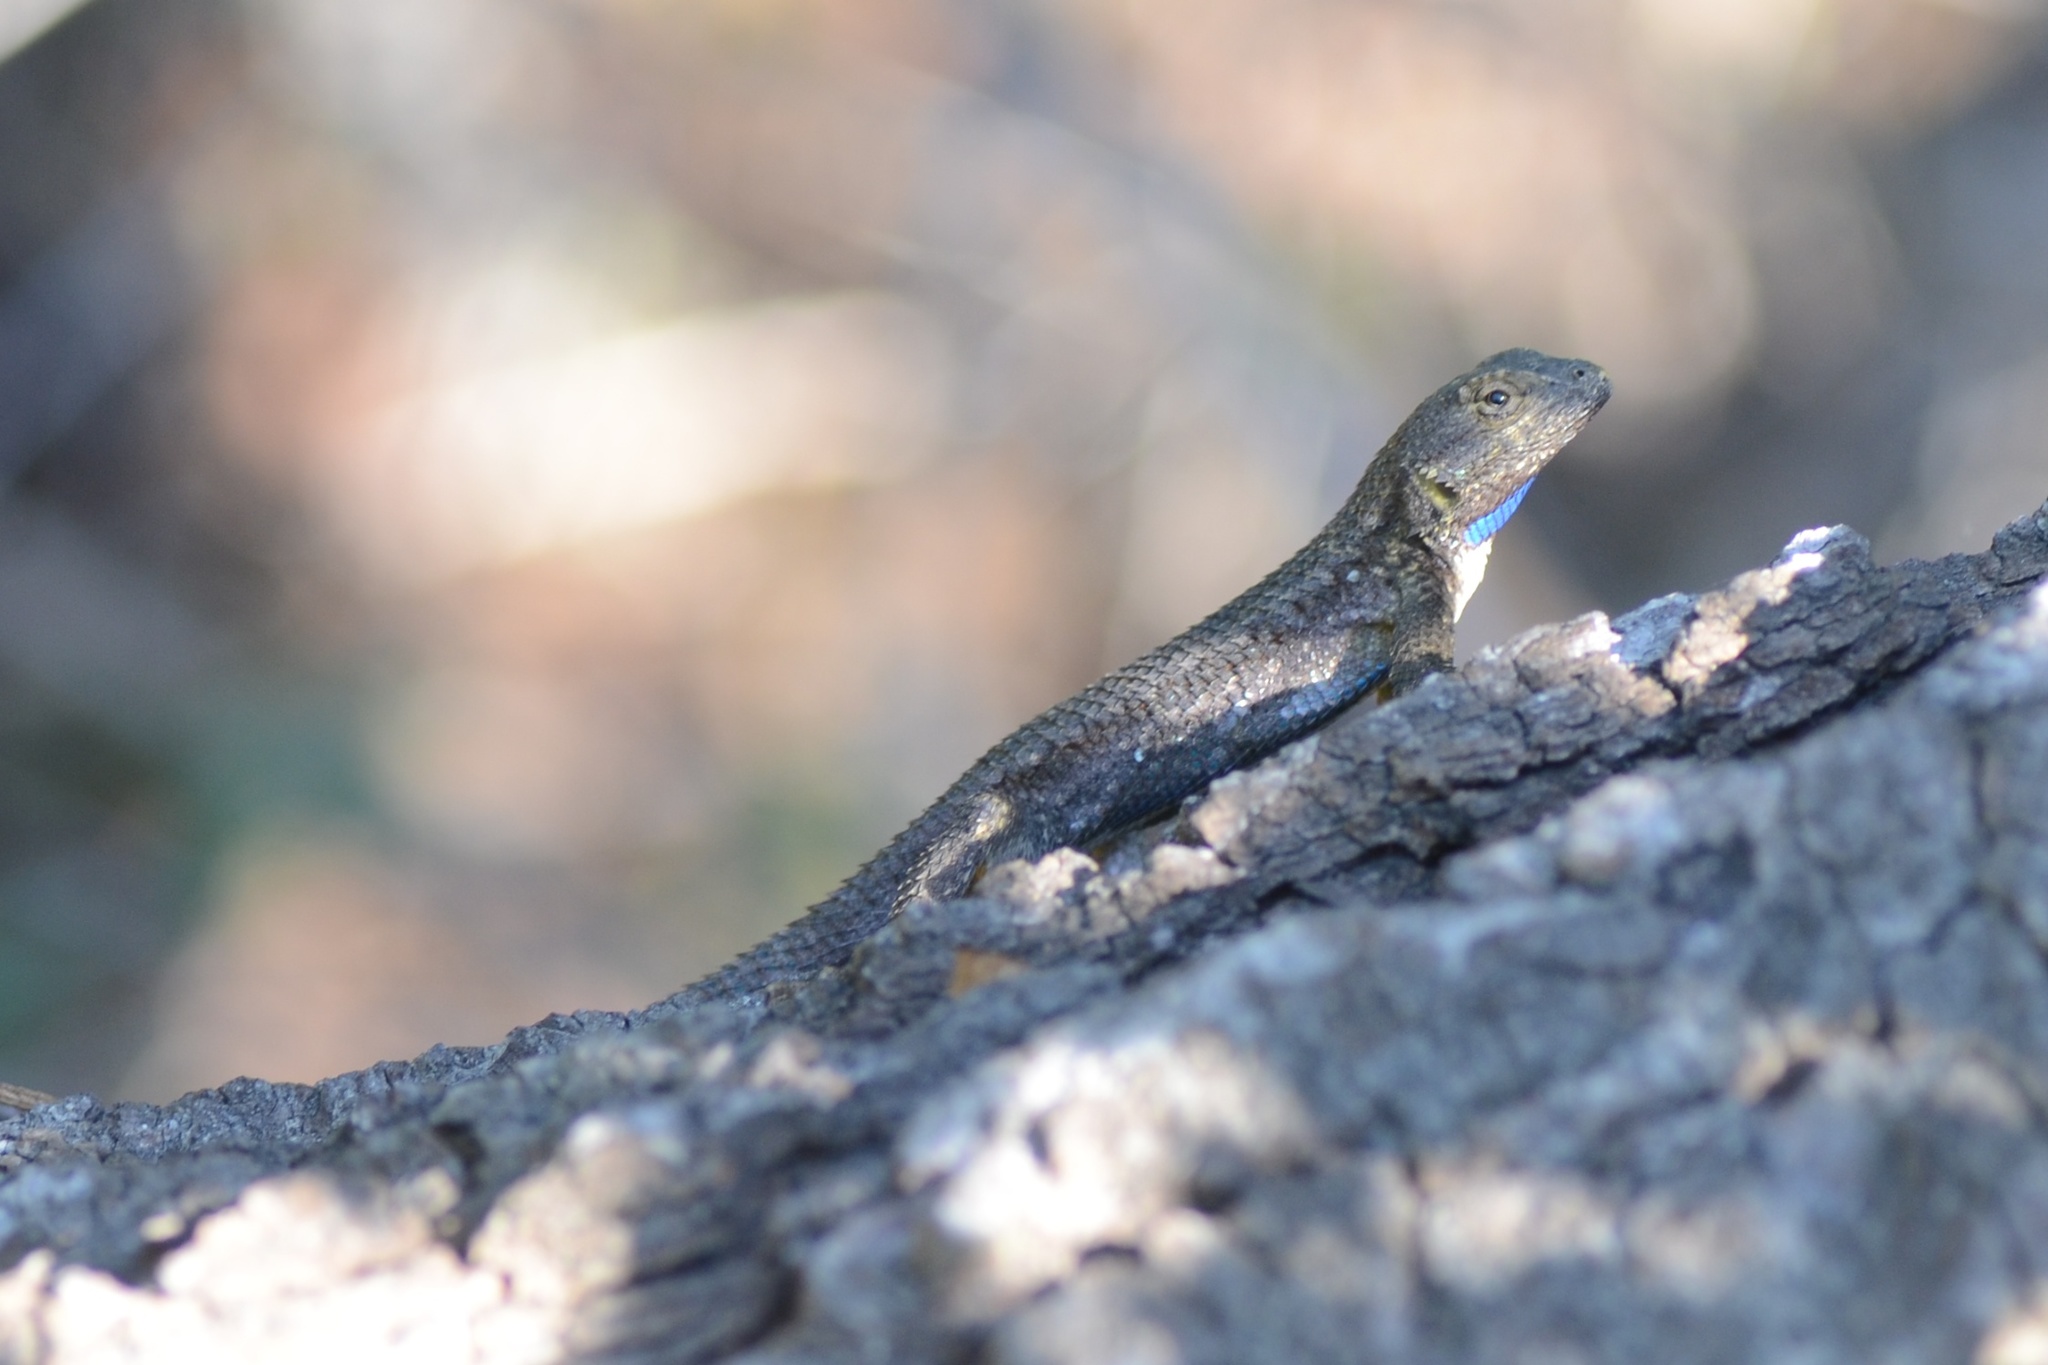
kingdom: Animalia
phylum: Chordata
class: Squamata
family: Phrynosomatidae
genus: Sceloporus
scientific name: Sceloporus occidentalis
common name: Western fence lizard
